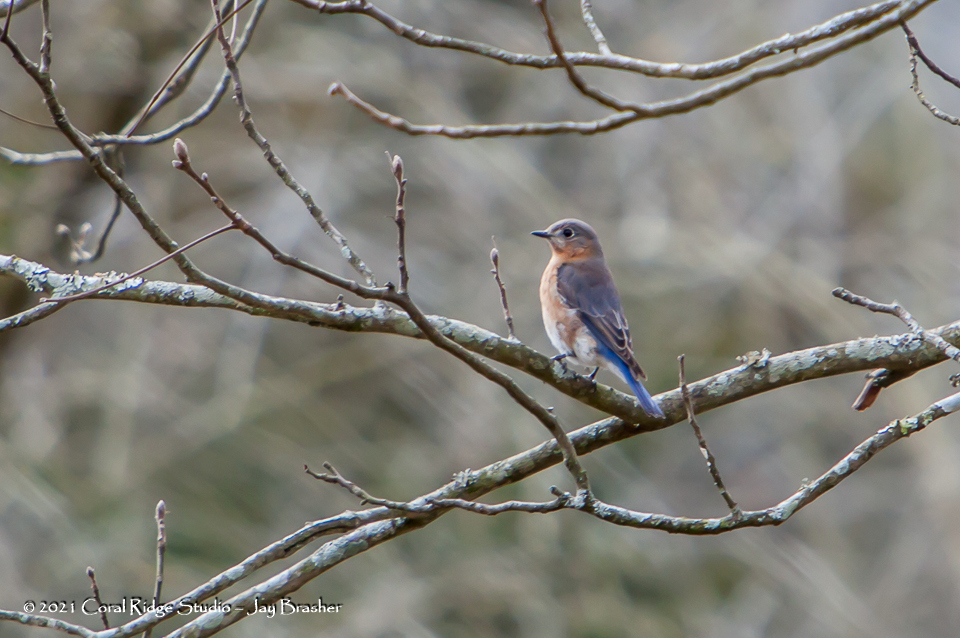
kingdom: Animalia
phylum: Chordata
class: Aves
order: Passeriformes
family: Turdidae
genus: Sialia
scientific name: Sialia sialis
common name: Eastern bluebird
